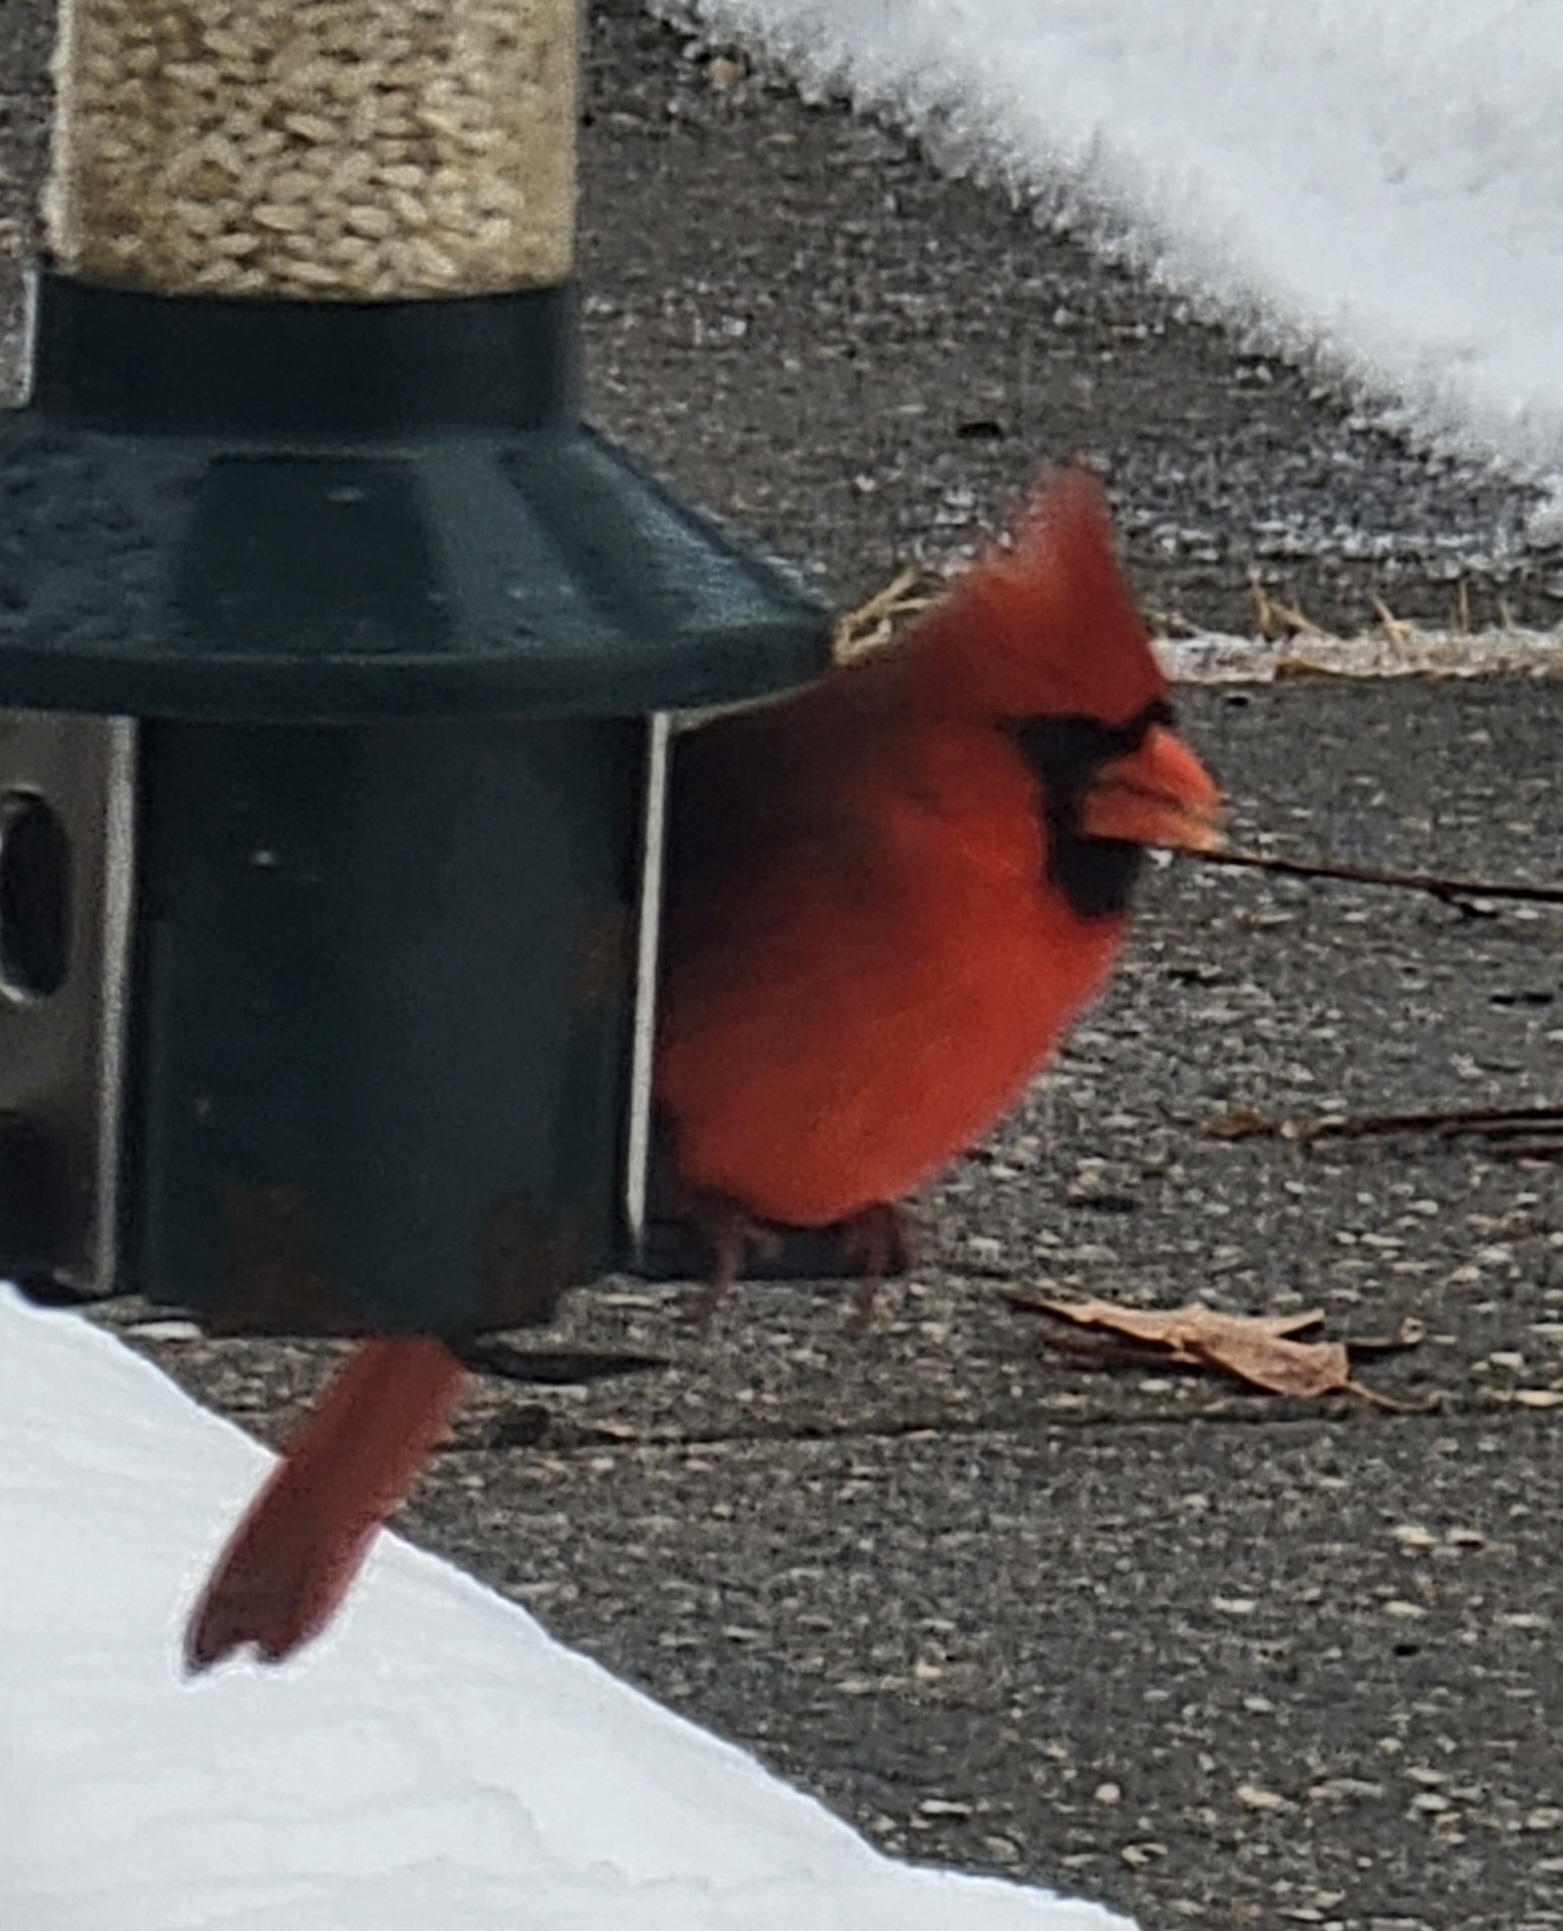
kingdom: Animalia
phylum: Chordata
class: Aves
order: Passeriformes
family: Cardinalidae
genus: Cardinalis
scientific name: Cardinalis cardinalis
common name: Northern cardinal
